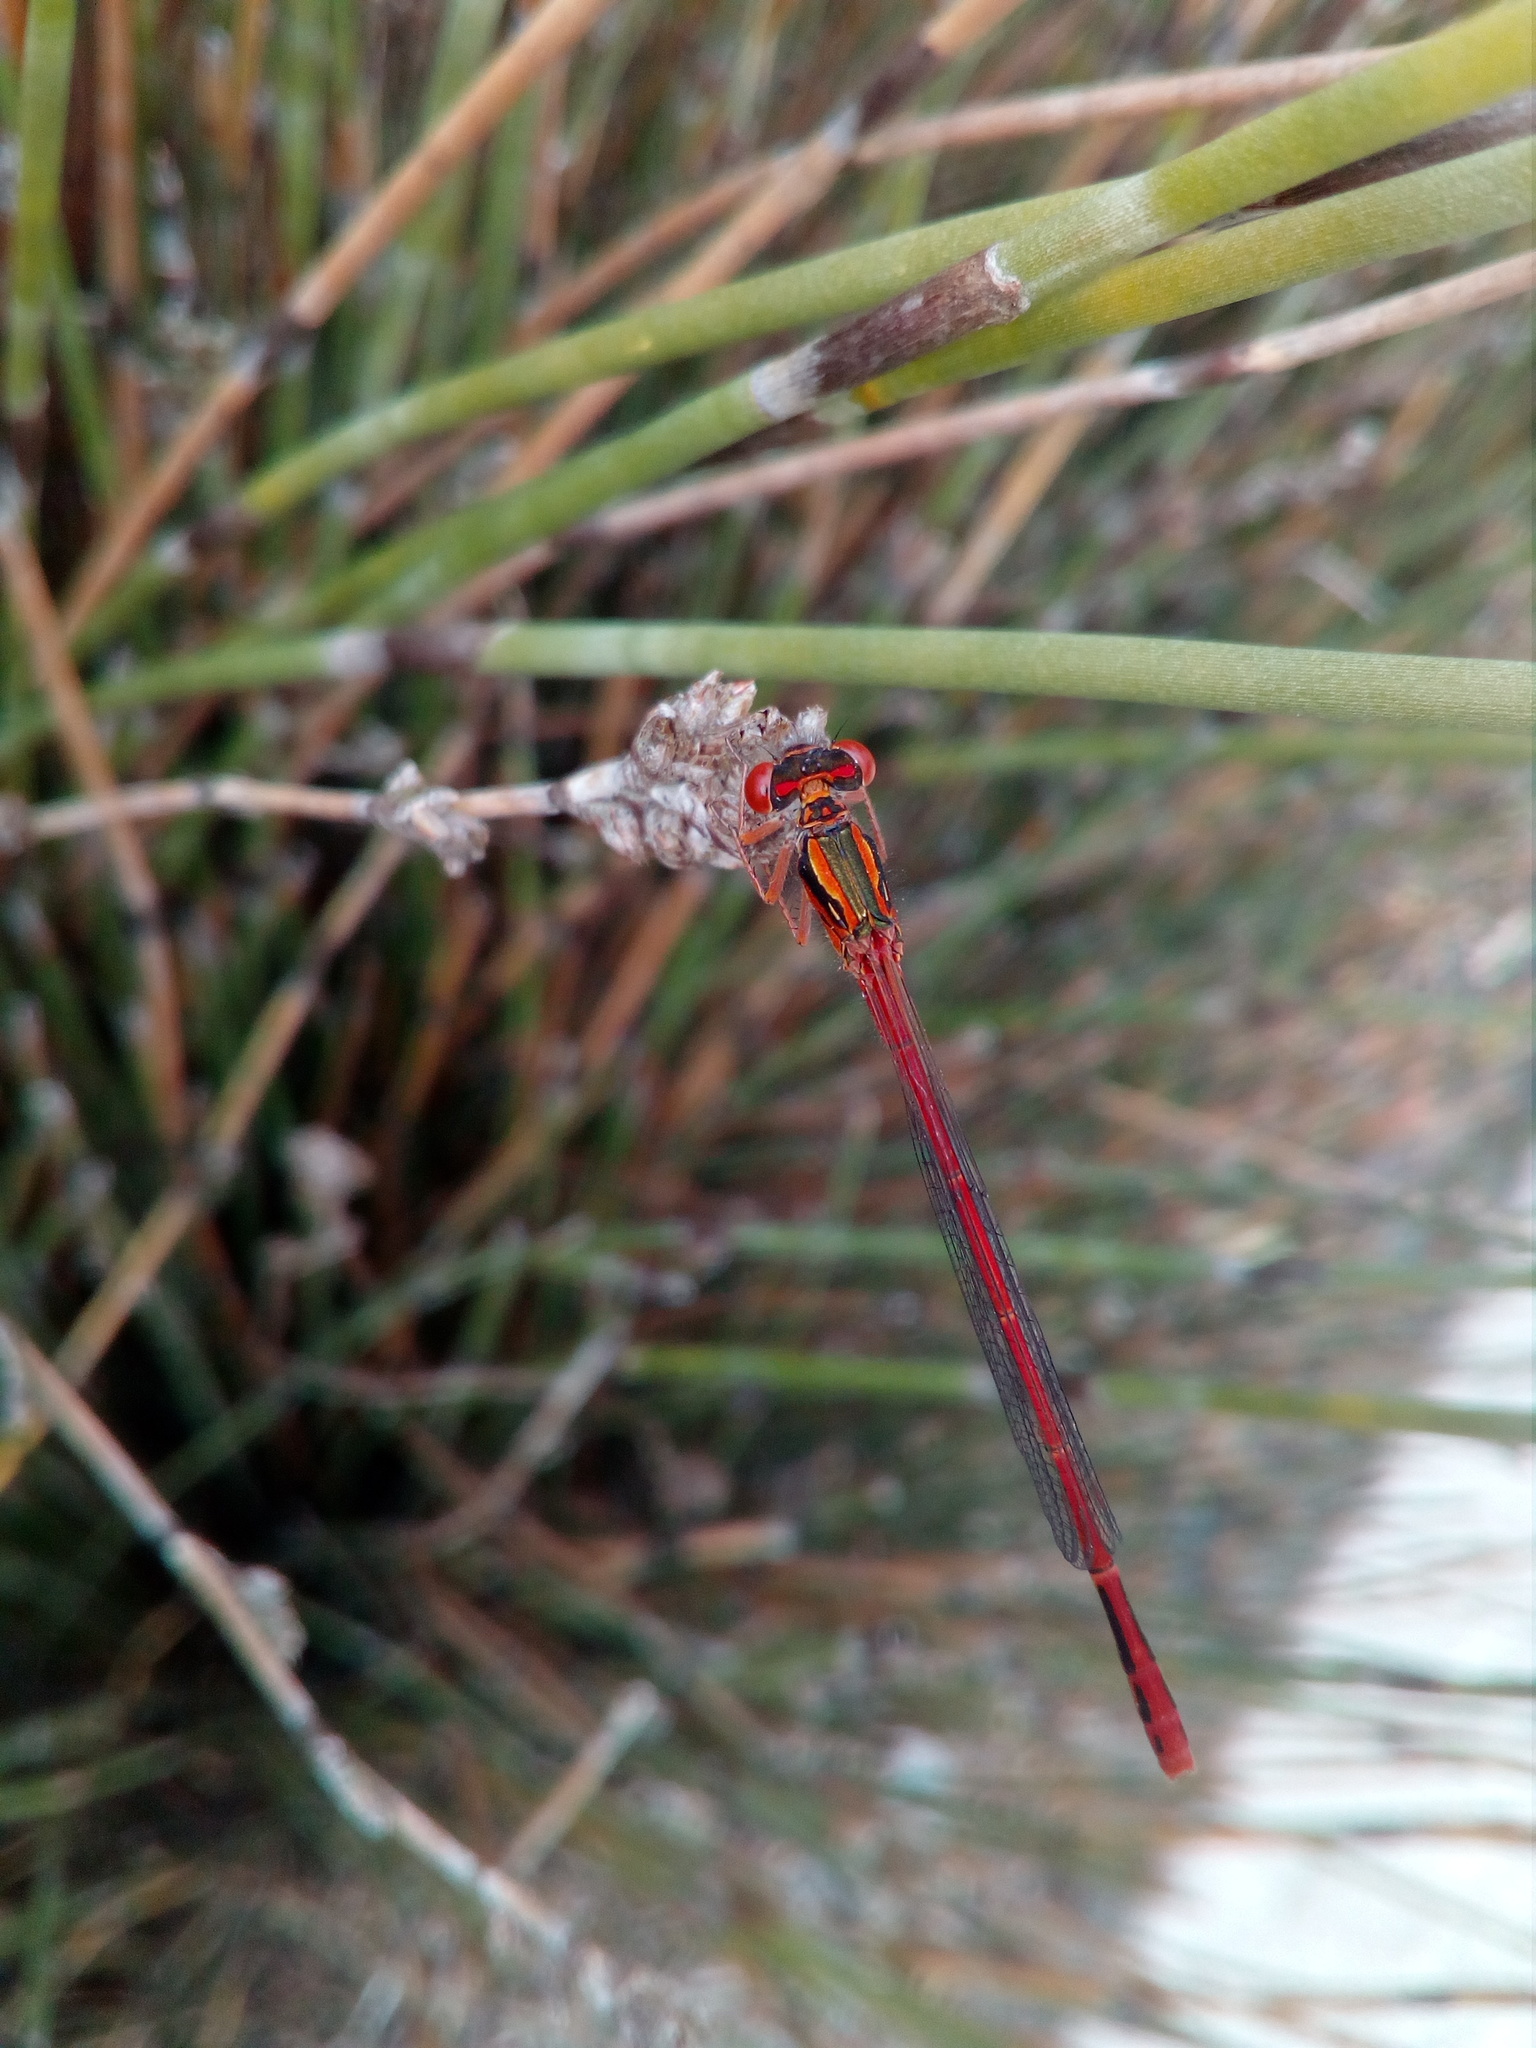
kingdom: Animalia
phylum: Arthropoda
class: Insecta
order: Odonata
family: Coenagrionidae
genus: Xanthocnemis
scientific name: Xanthocnemis zealandica
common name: Common redcoat damselfly
